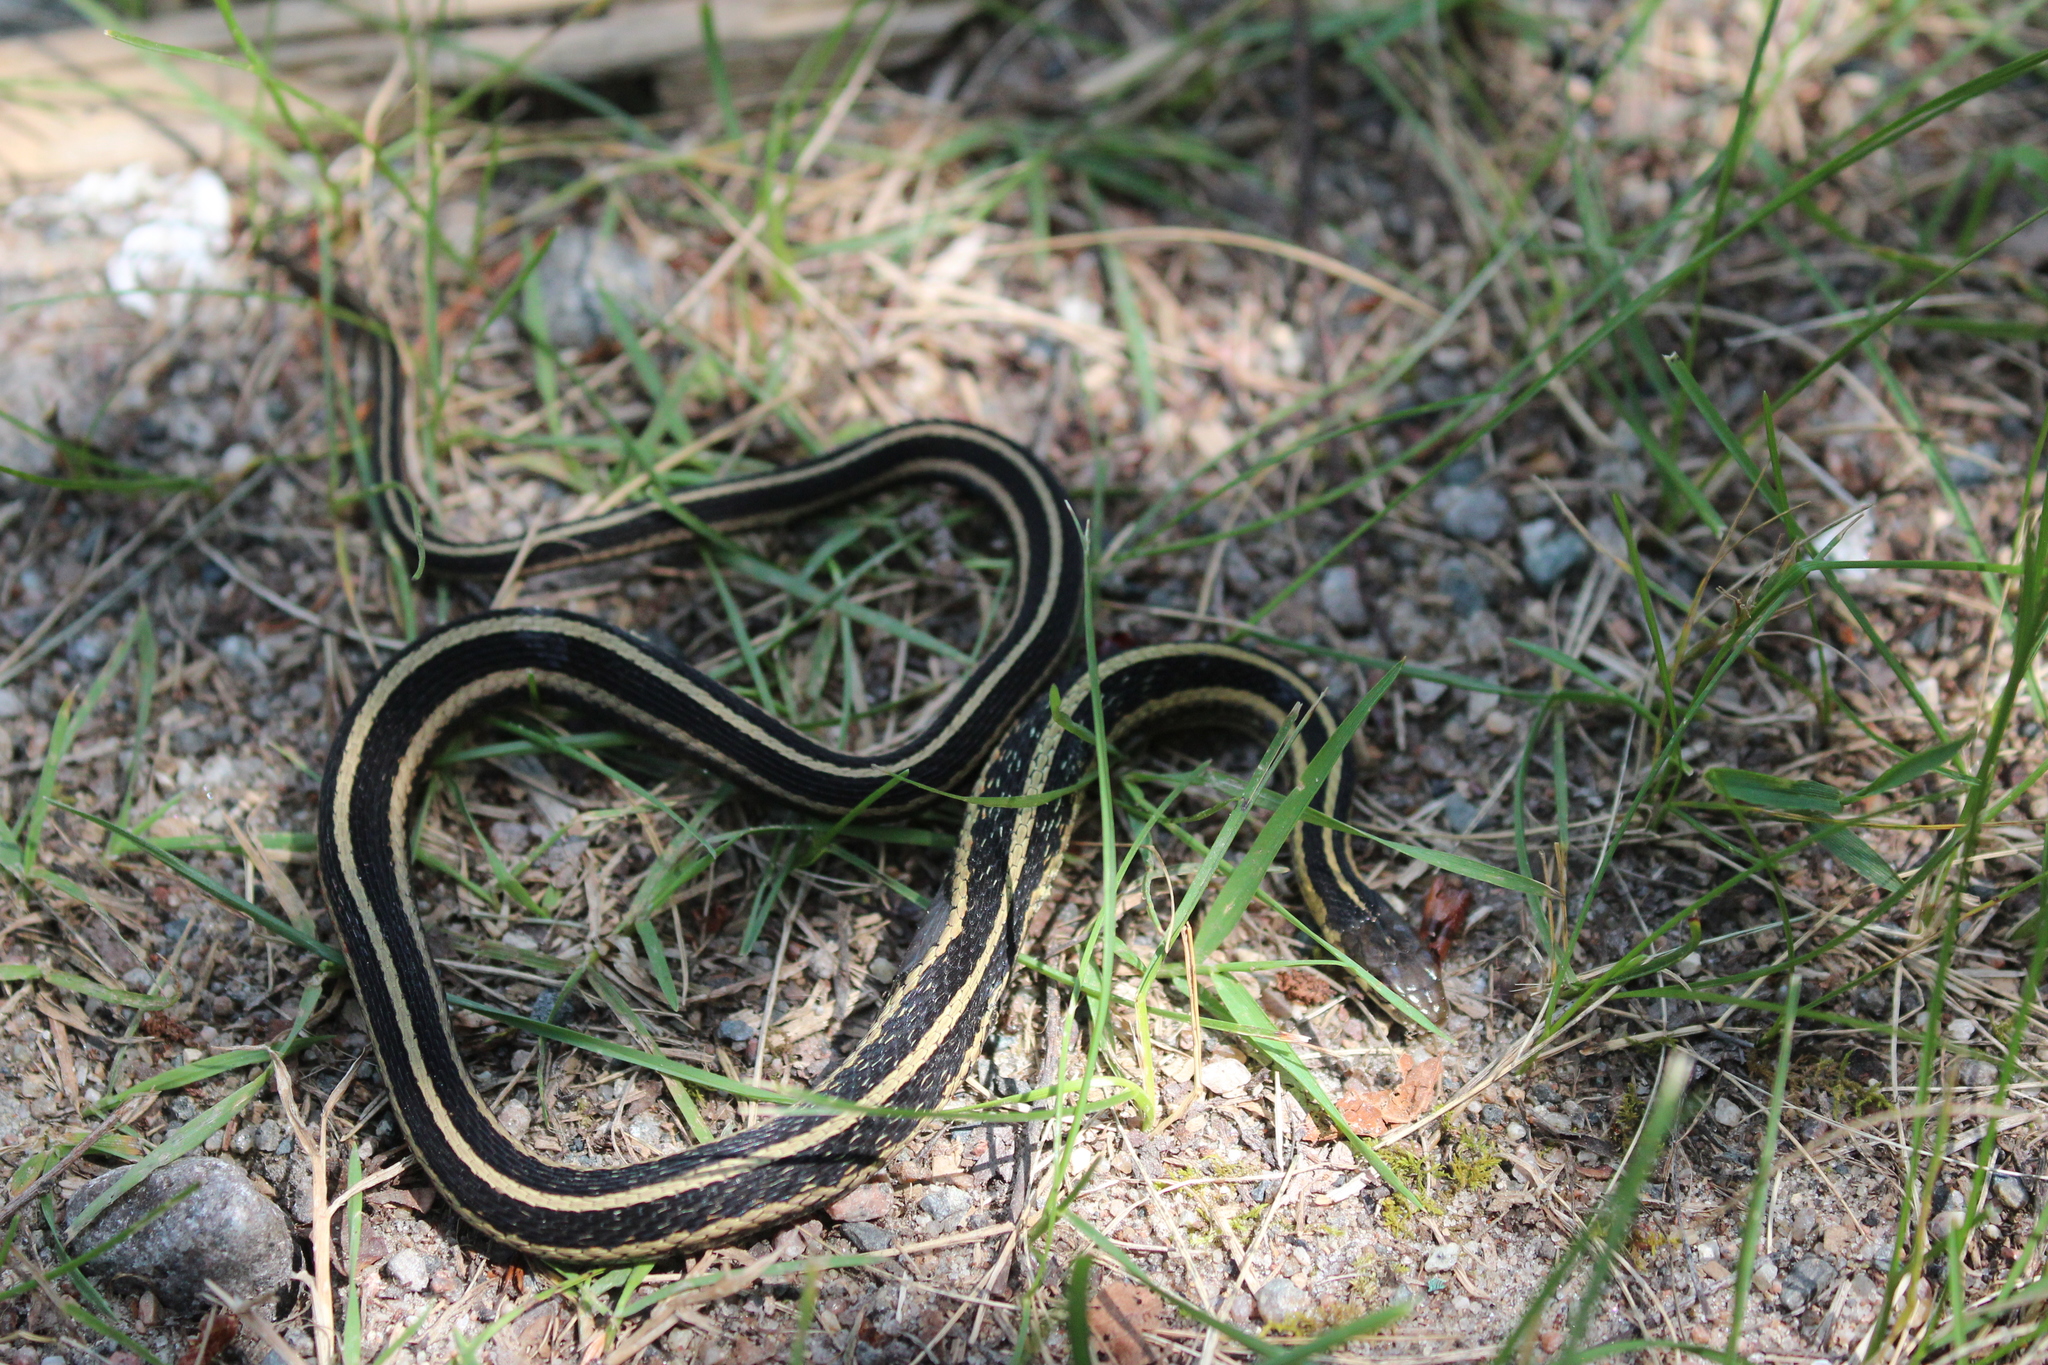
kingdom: Animalia
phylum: Chordata
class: Squamata
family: Colubridae
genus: Thamnophis
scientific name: Thamnophis sirtalis
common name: Common garter snake
